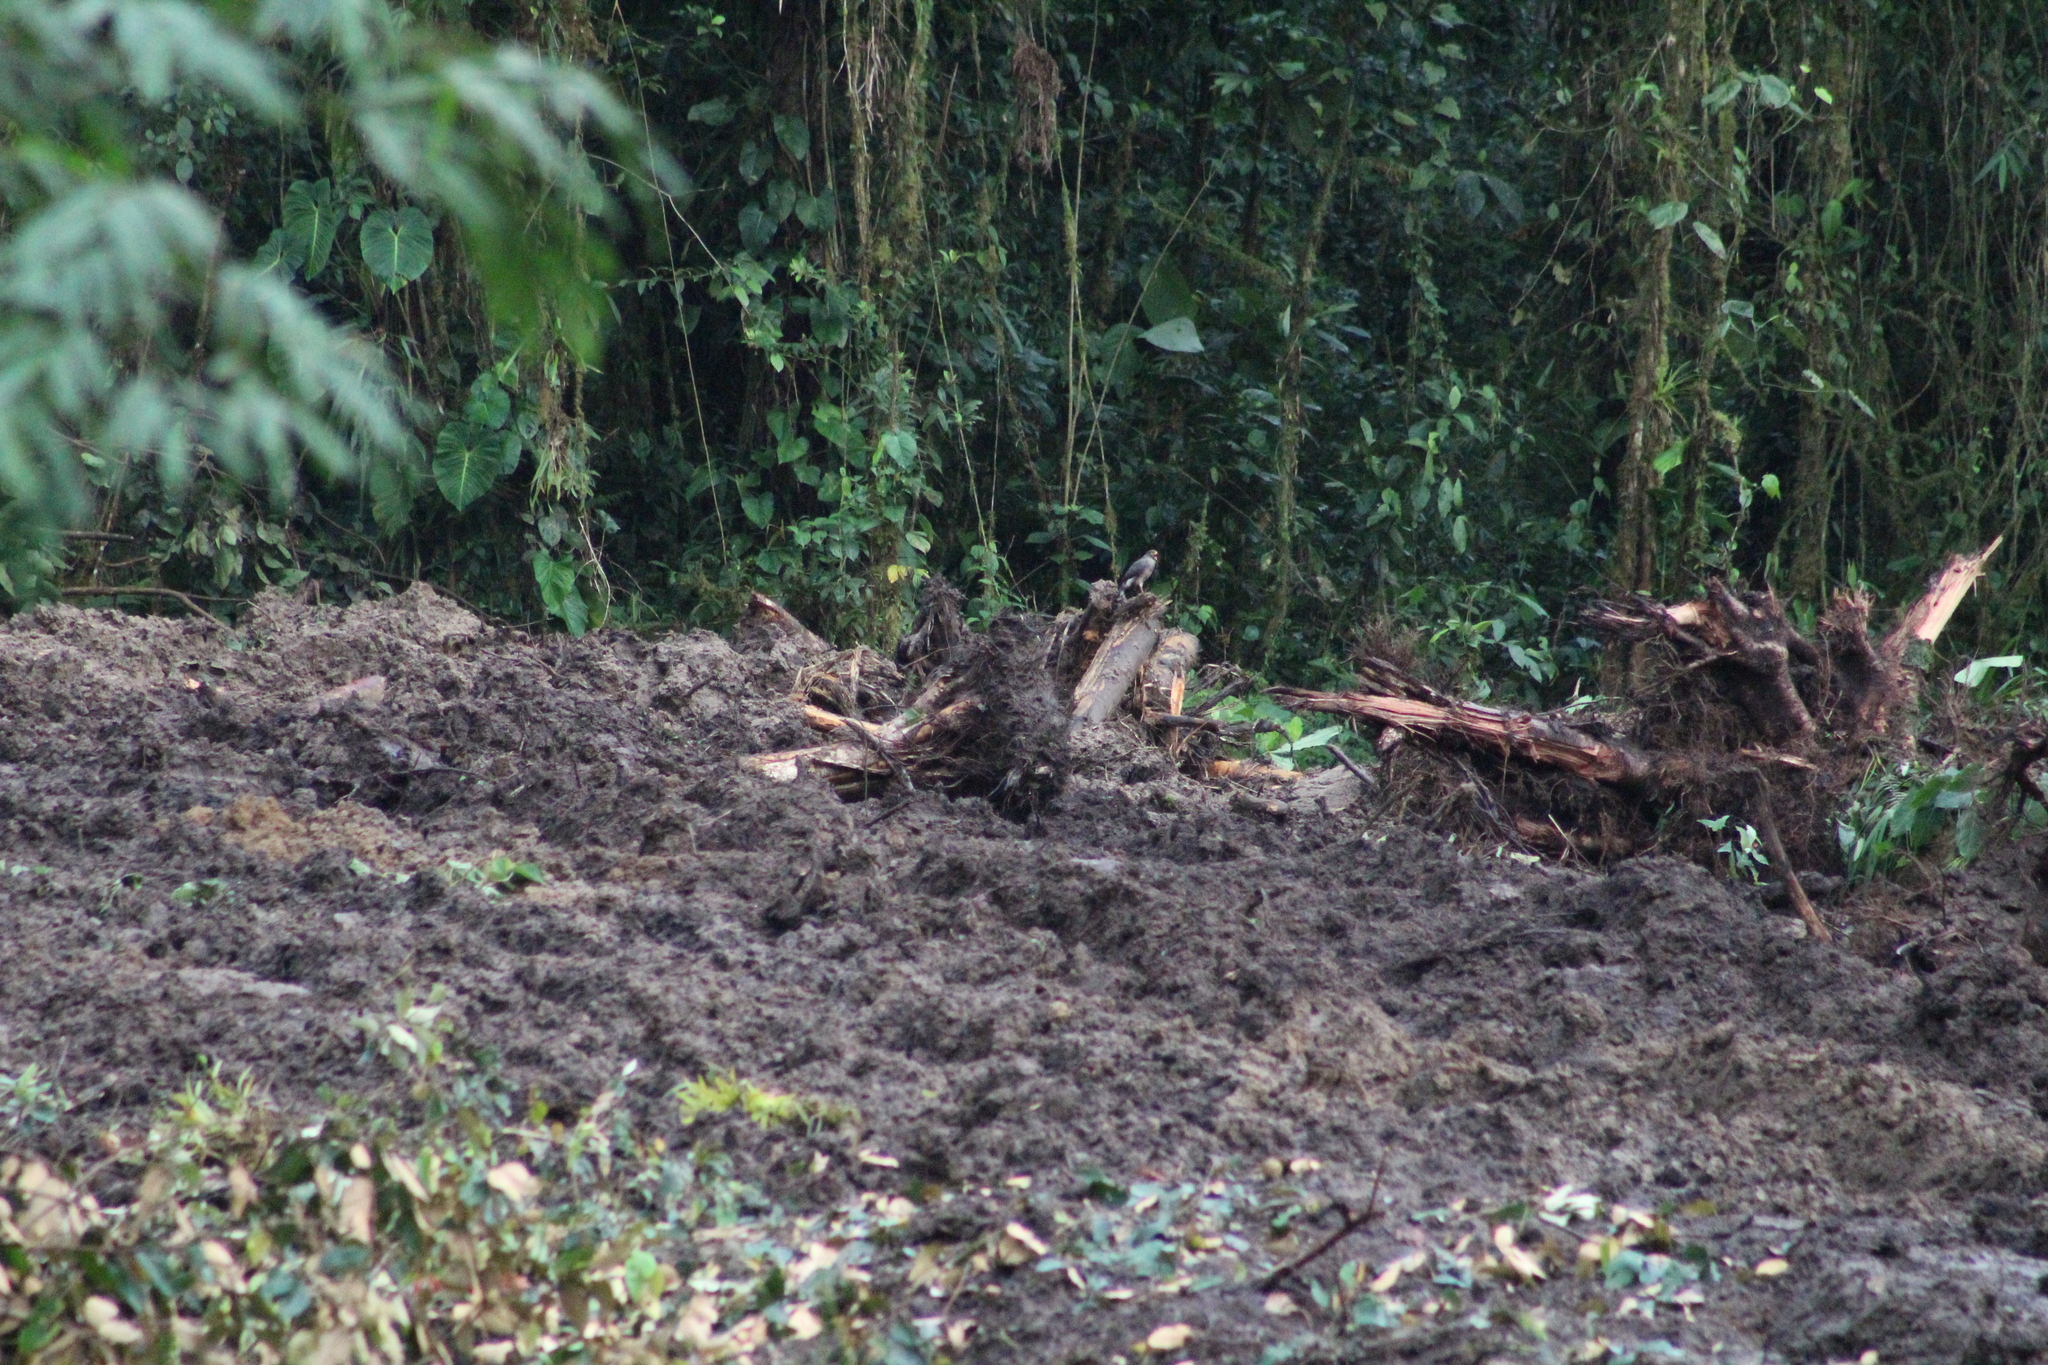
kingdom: Animalia
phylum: Chordata
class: Aves
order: Accipitriformes
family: Accipitridae
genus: Rupornis
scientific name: Rupornis magnirostris
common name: Roadside hawk
